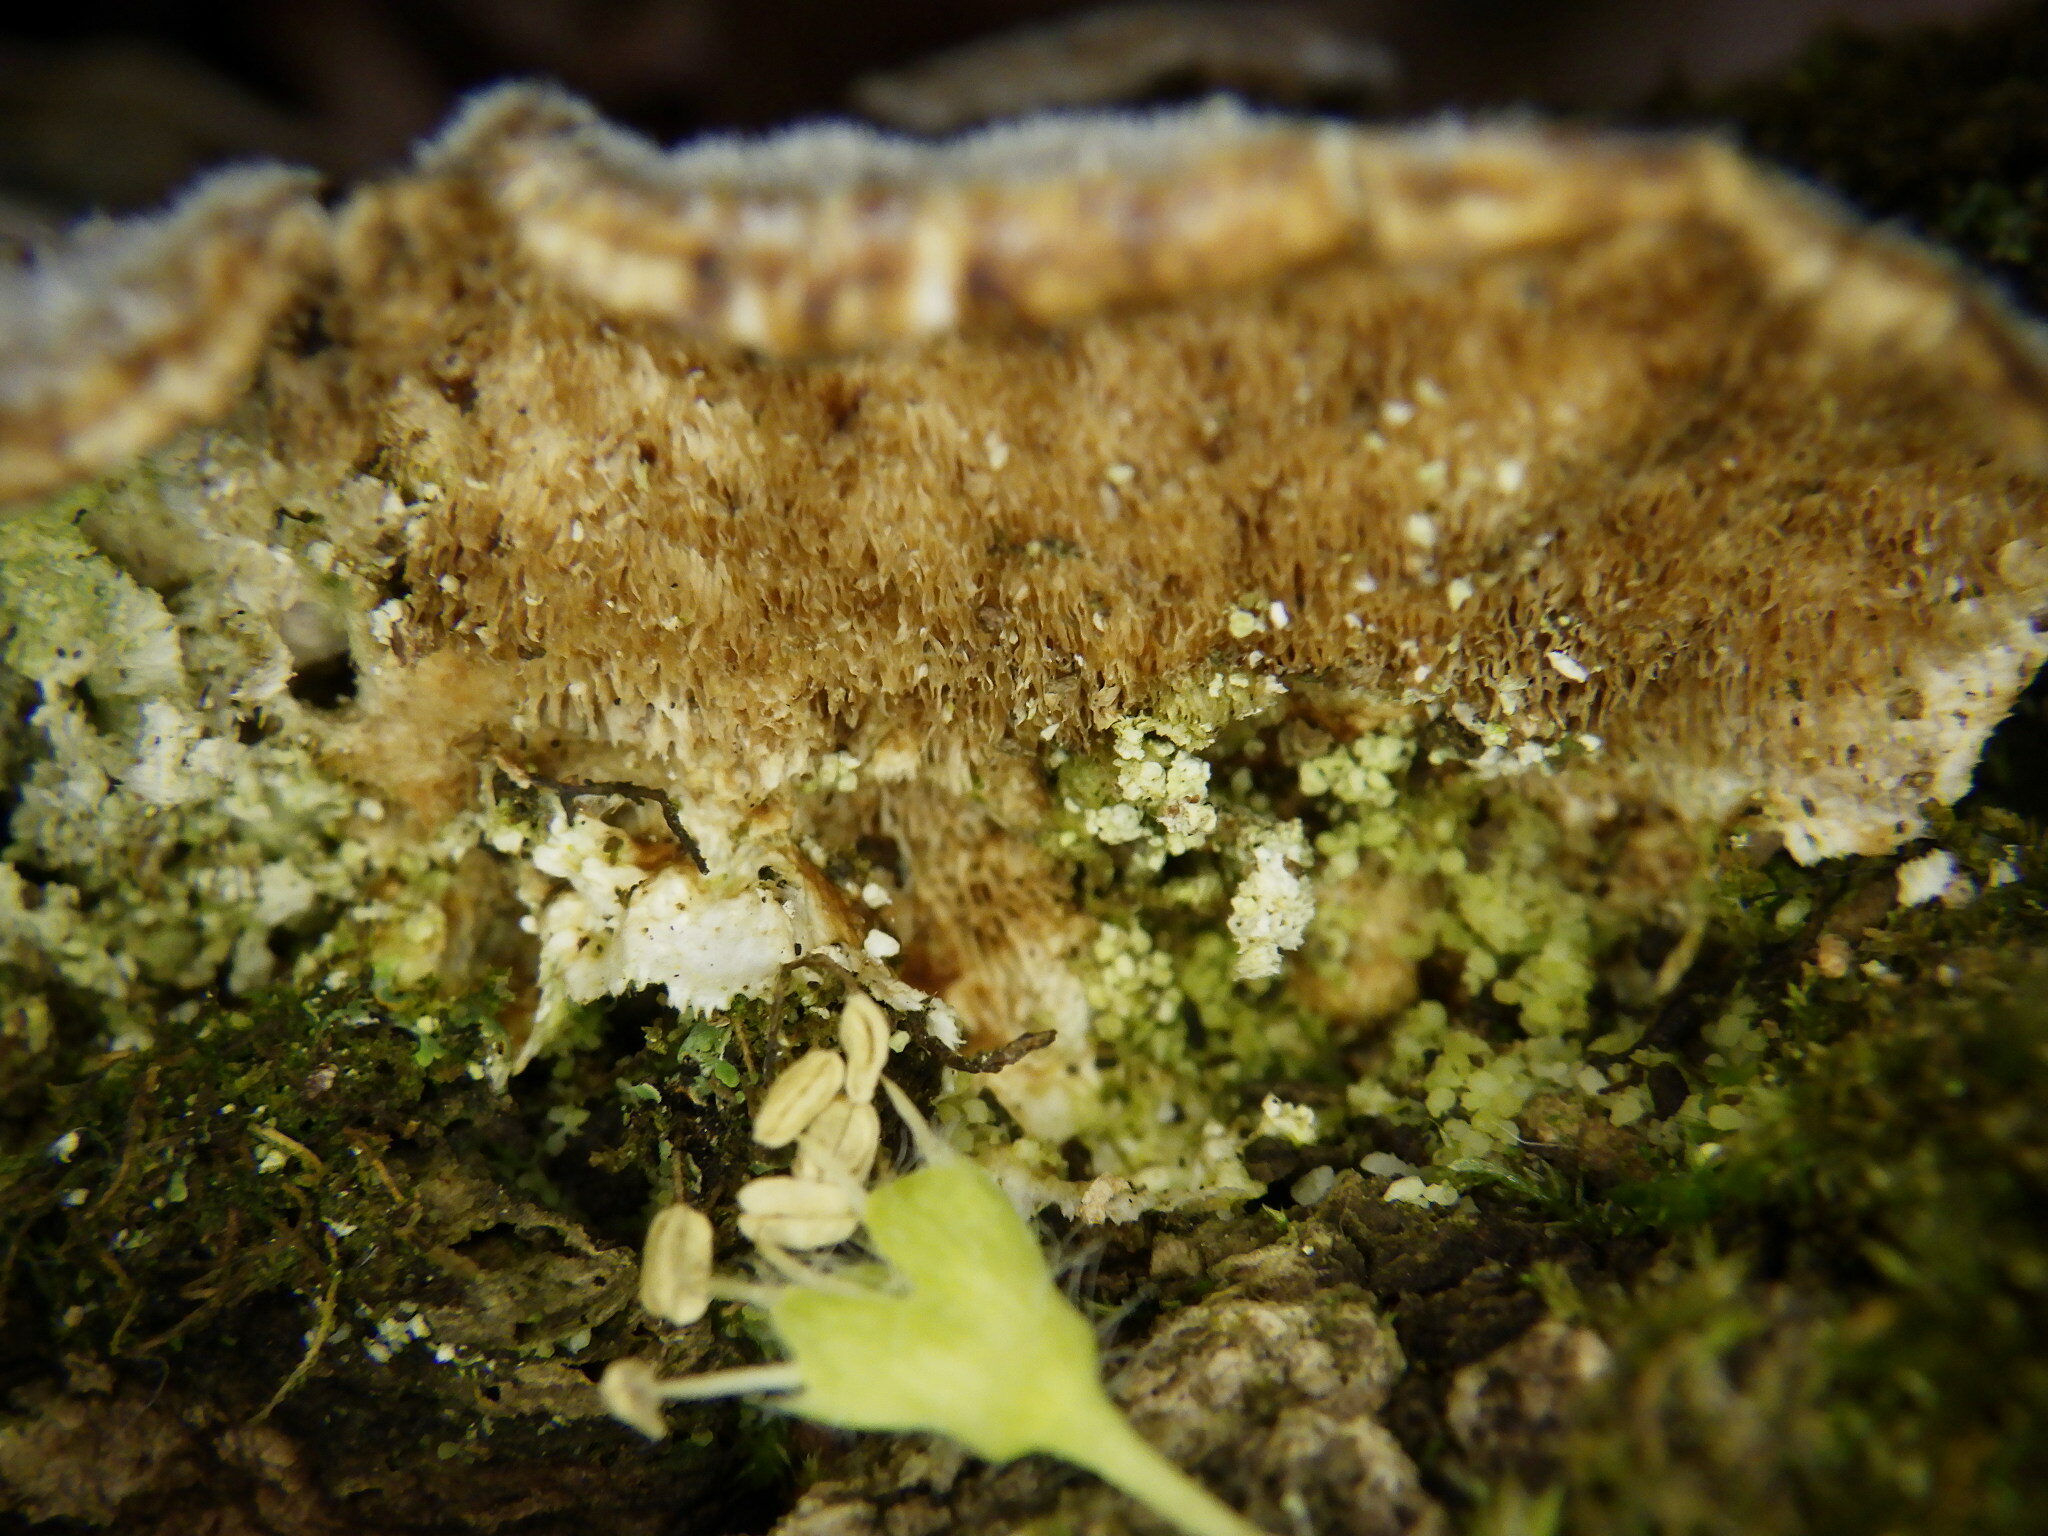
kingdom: Fungi
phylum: Basidiomycota
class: Agaricomycetes
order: Polyporales
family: Polyporaceae
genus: Trametes
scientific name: Trametes versicolor
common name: Turkeytail
